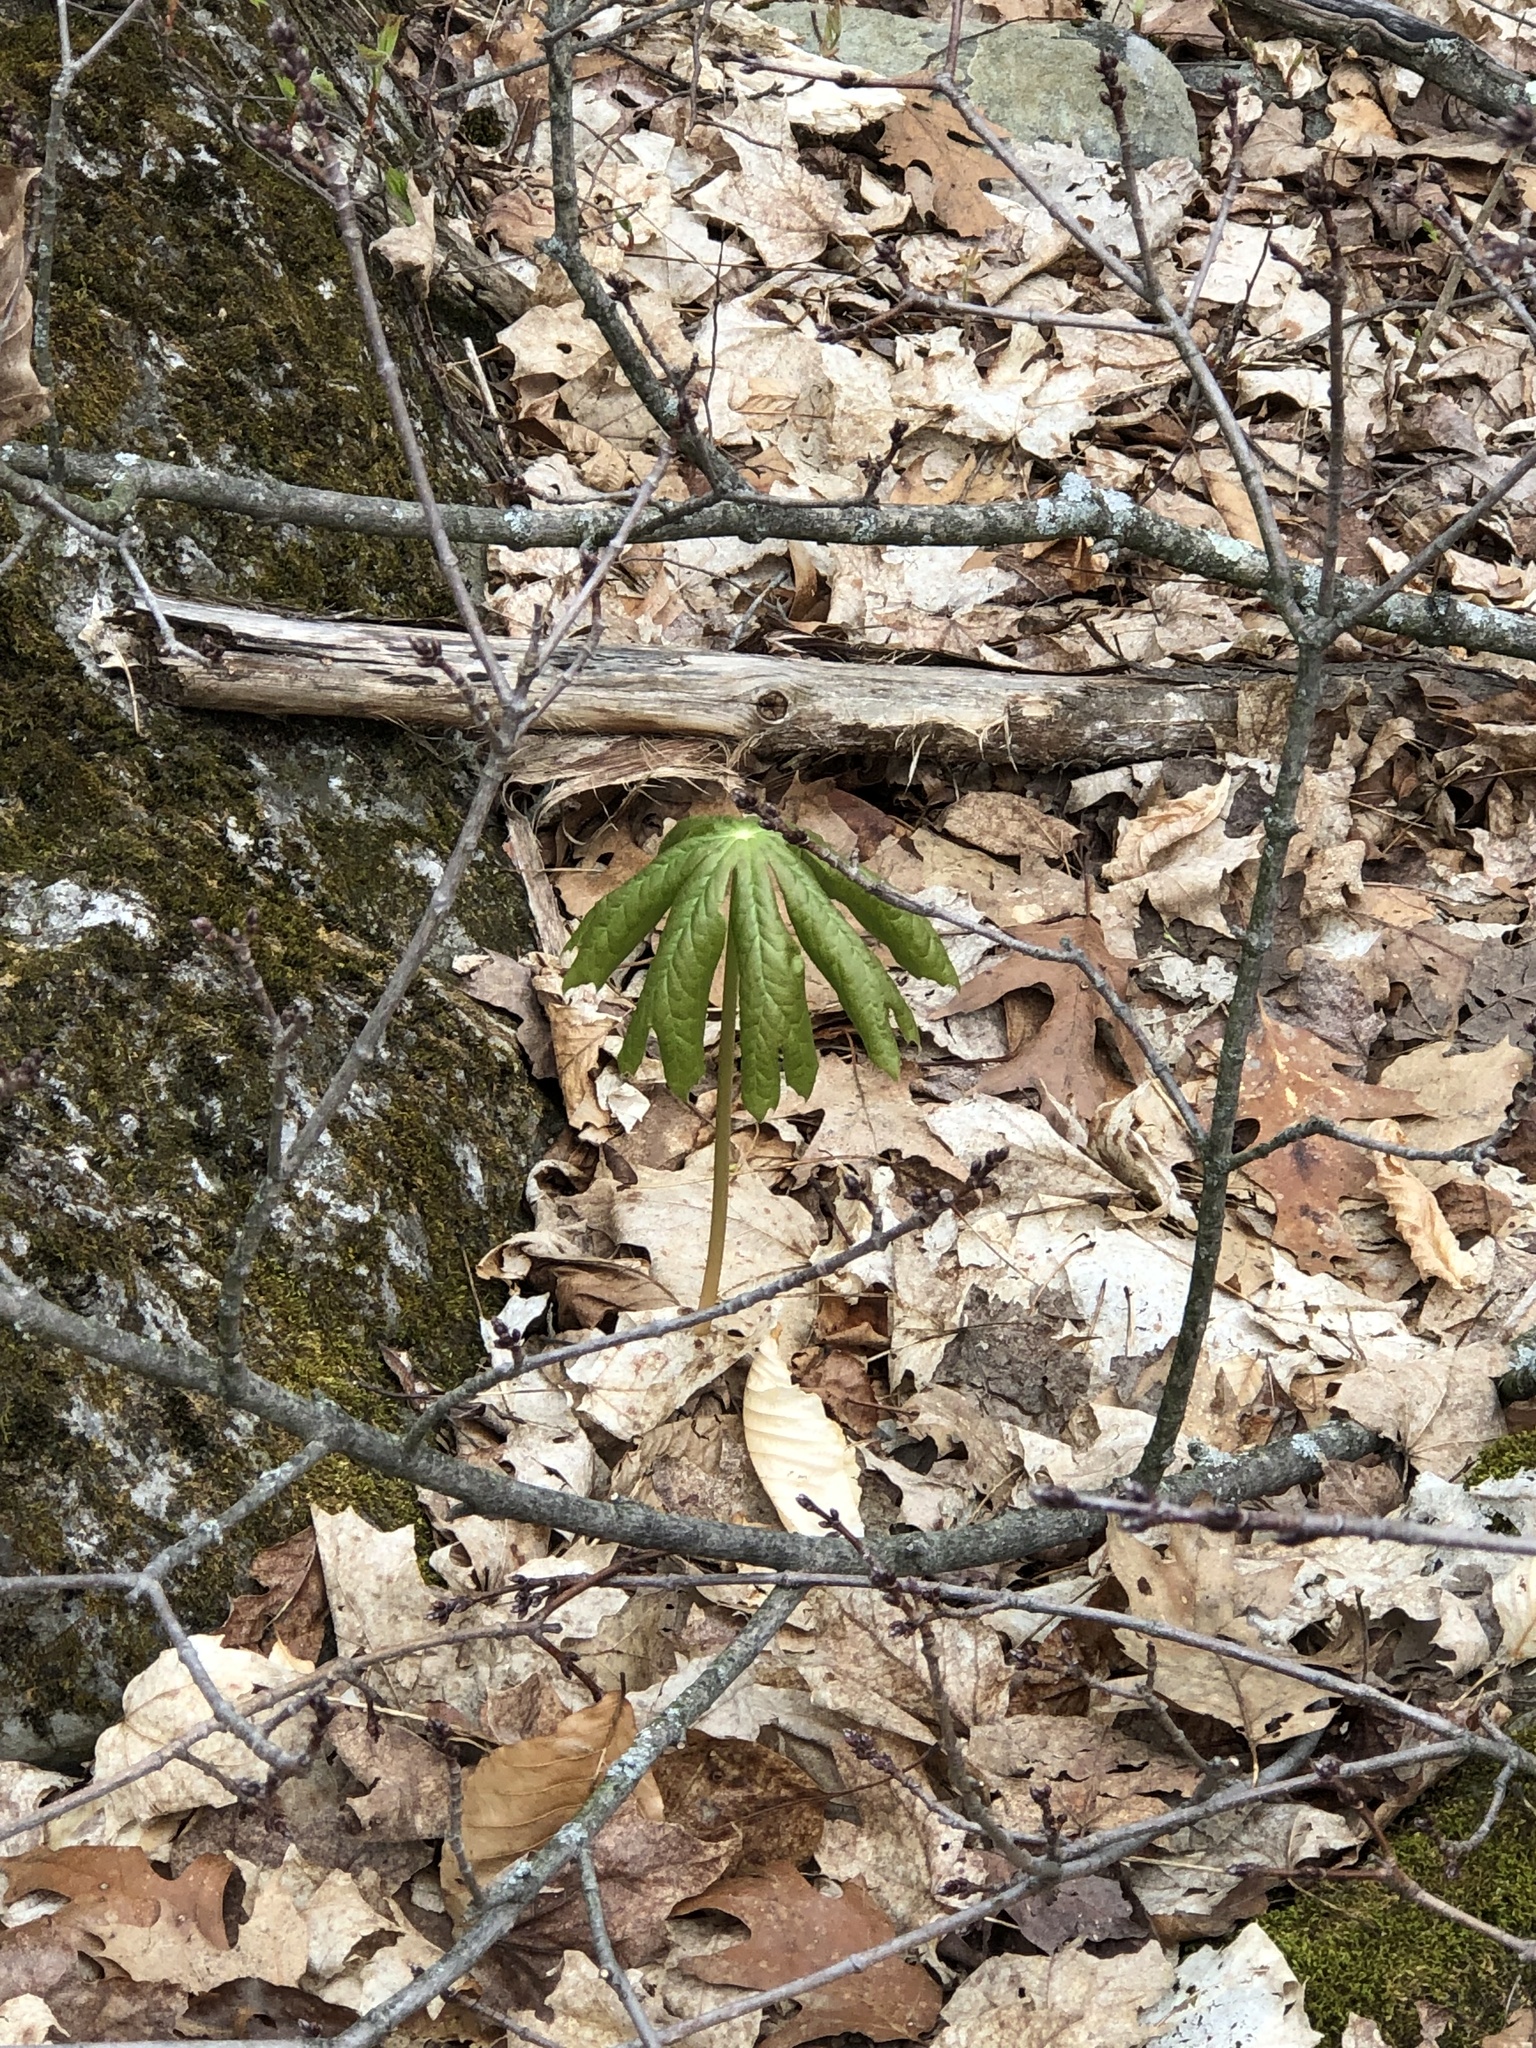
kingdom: Plantae
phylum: Tracheophyta
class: Magnoliopsida
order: Ranunculales
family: Berberidaceae
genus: Podophyllum
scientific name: Podophyllum peltatum
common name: Wild mandrake
